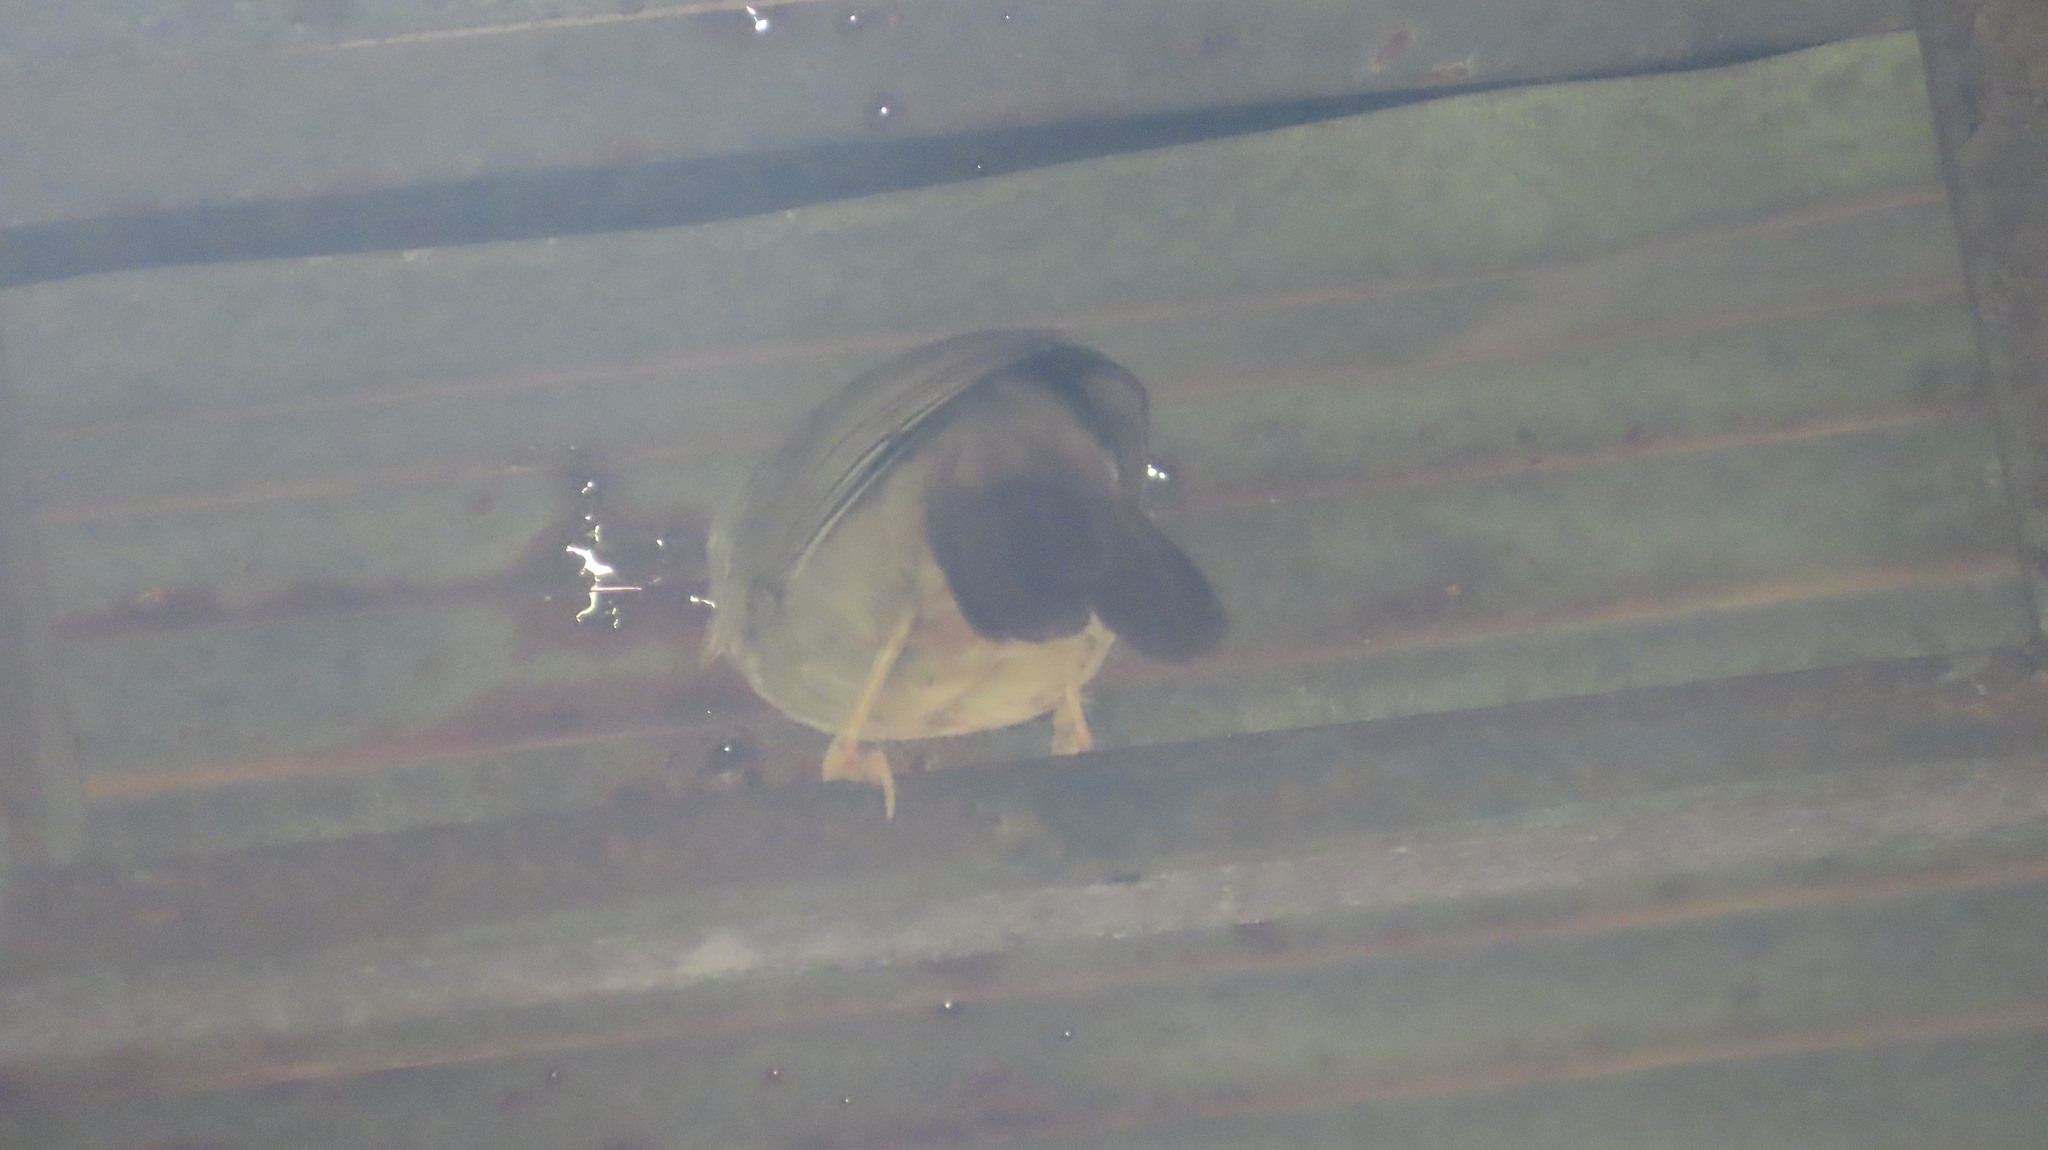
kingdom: Animalia
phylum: Chordata
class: Aves
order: Passeriformes
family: Leiothrichidae
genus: Turdoides
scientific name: Turdoides striata
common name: Jungle babbler
